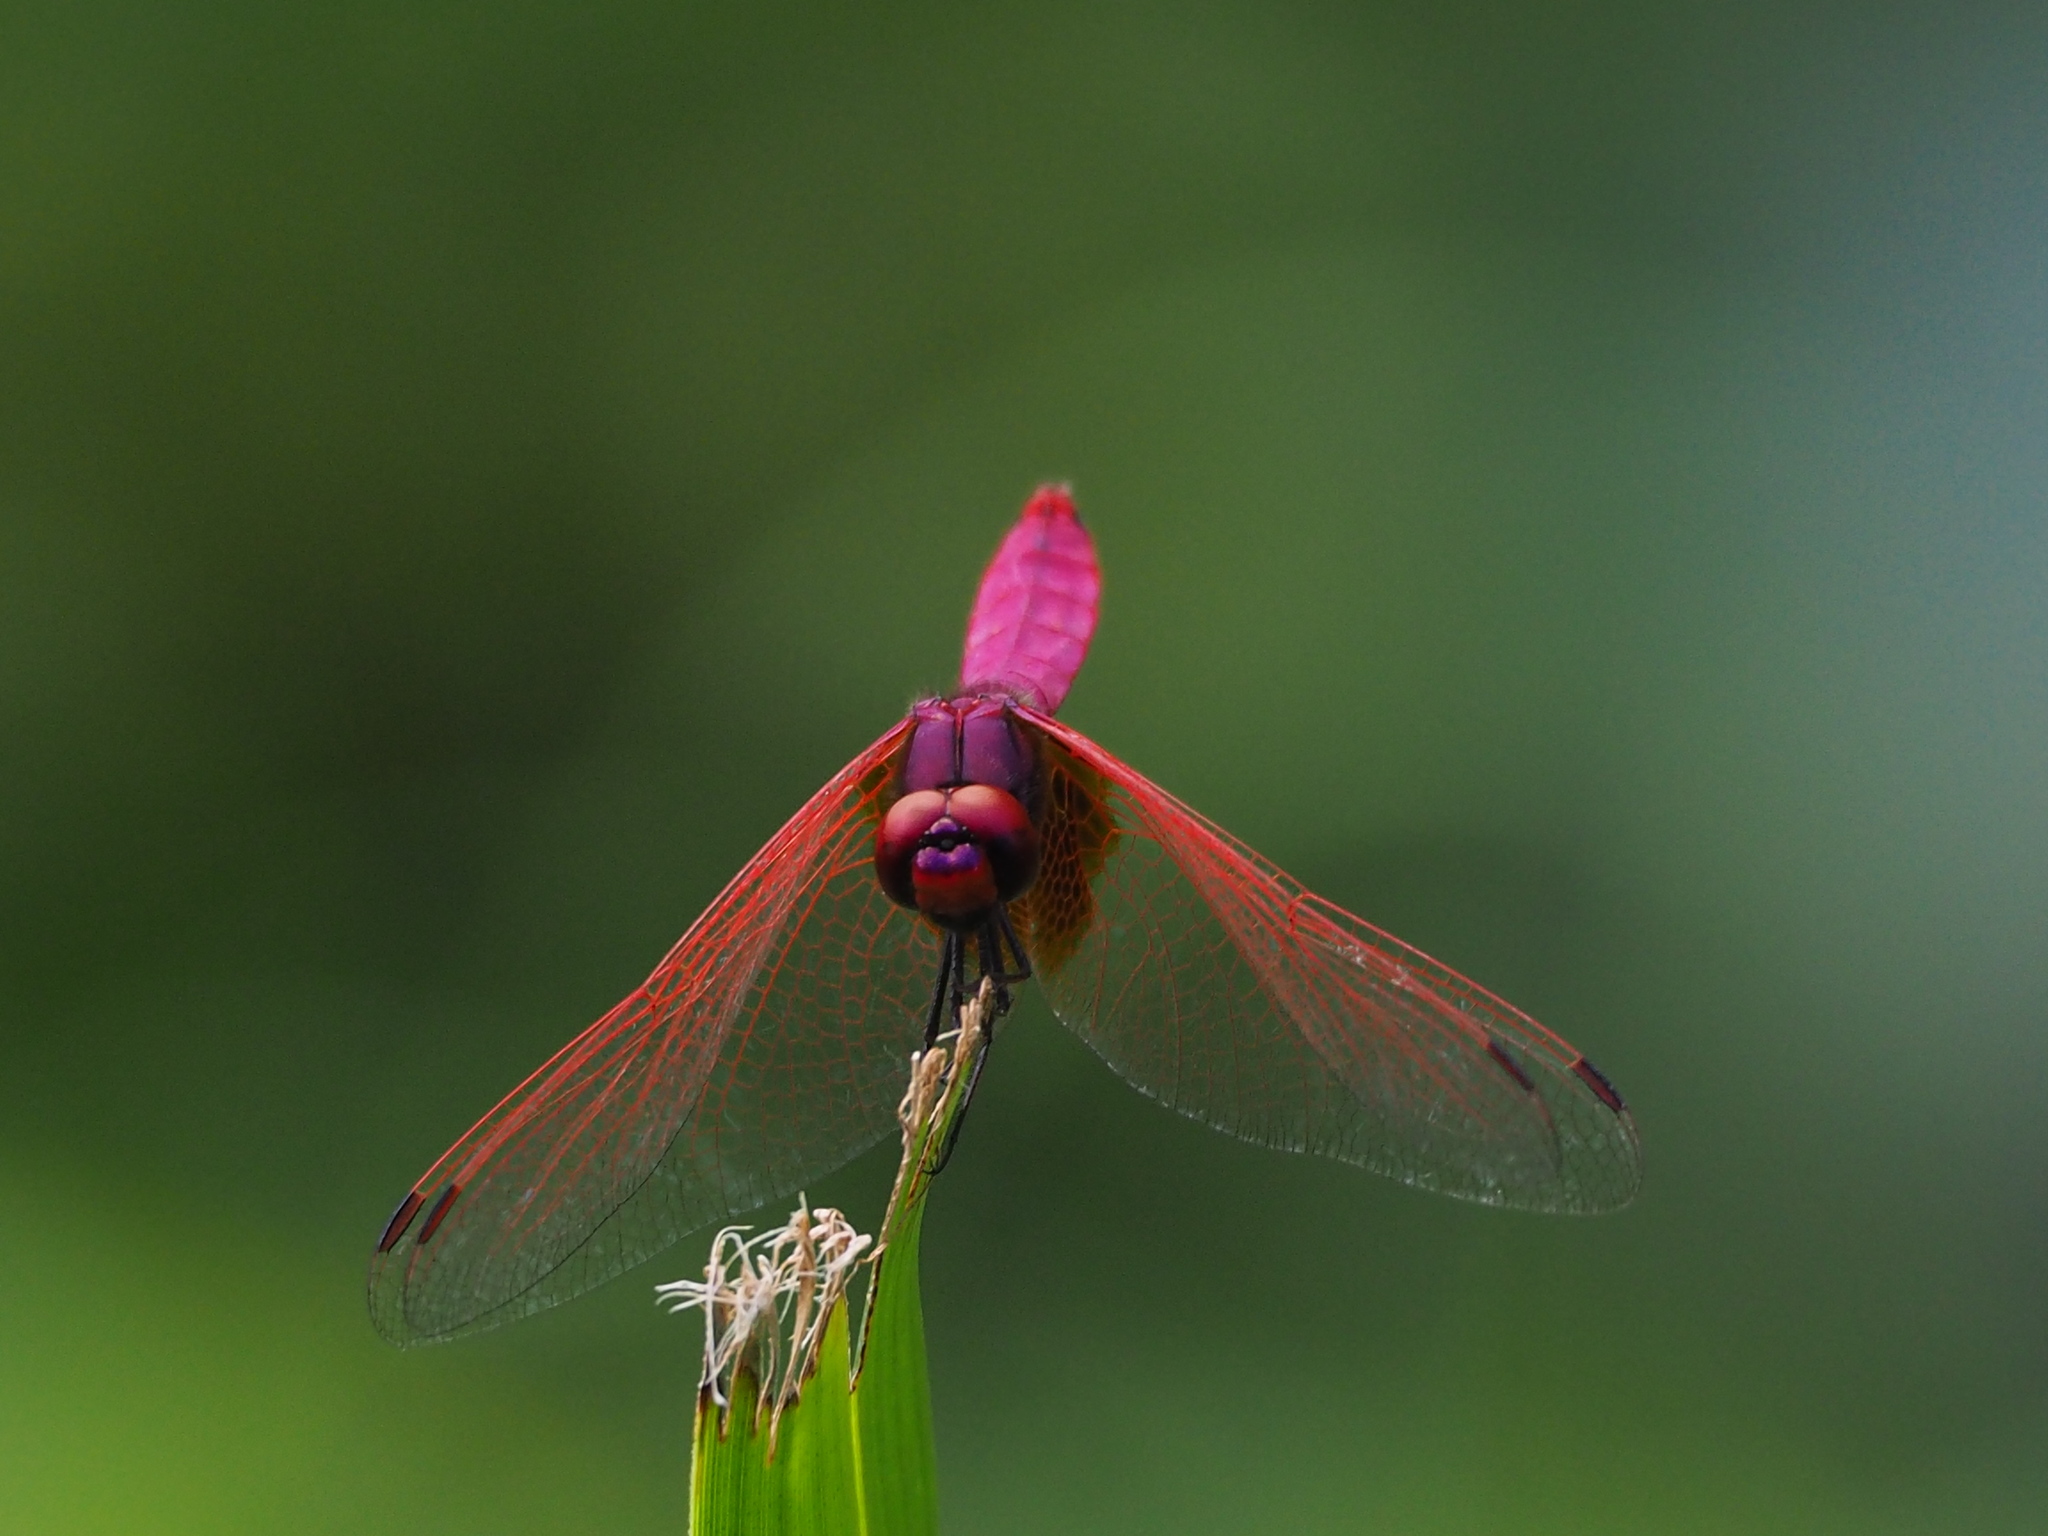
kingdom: Animalia
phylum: Arthropoda
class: Insecta
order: Odonata
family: Libellulidae
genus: Trithemis
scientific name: Trithemis aurora
